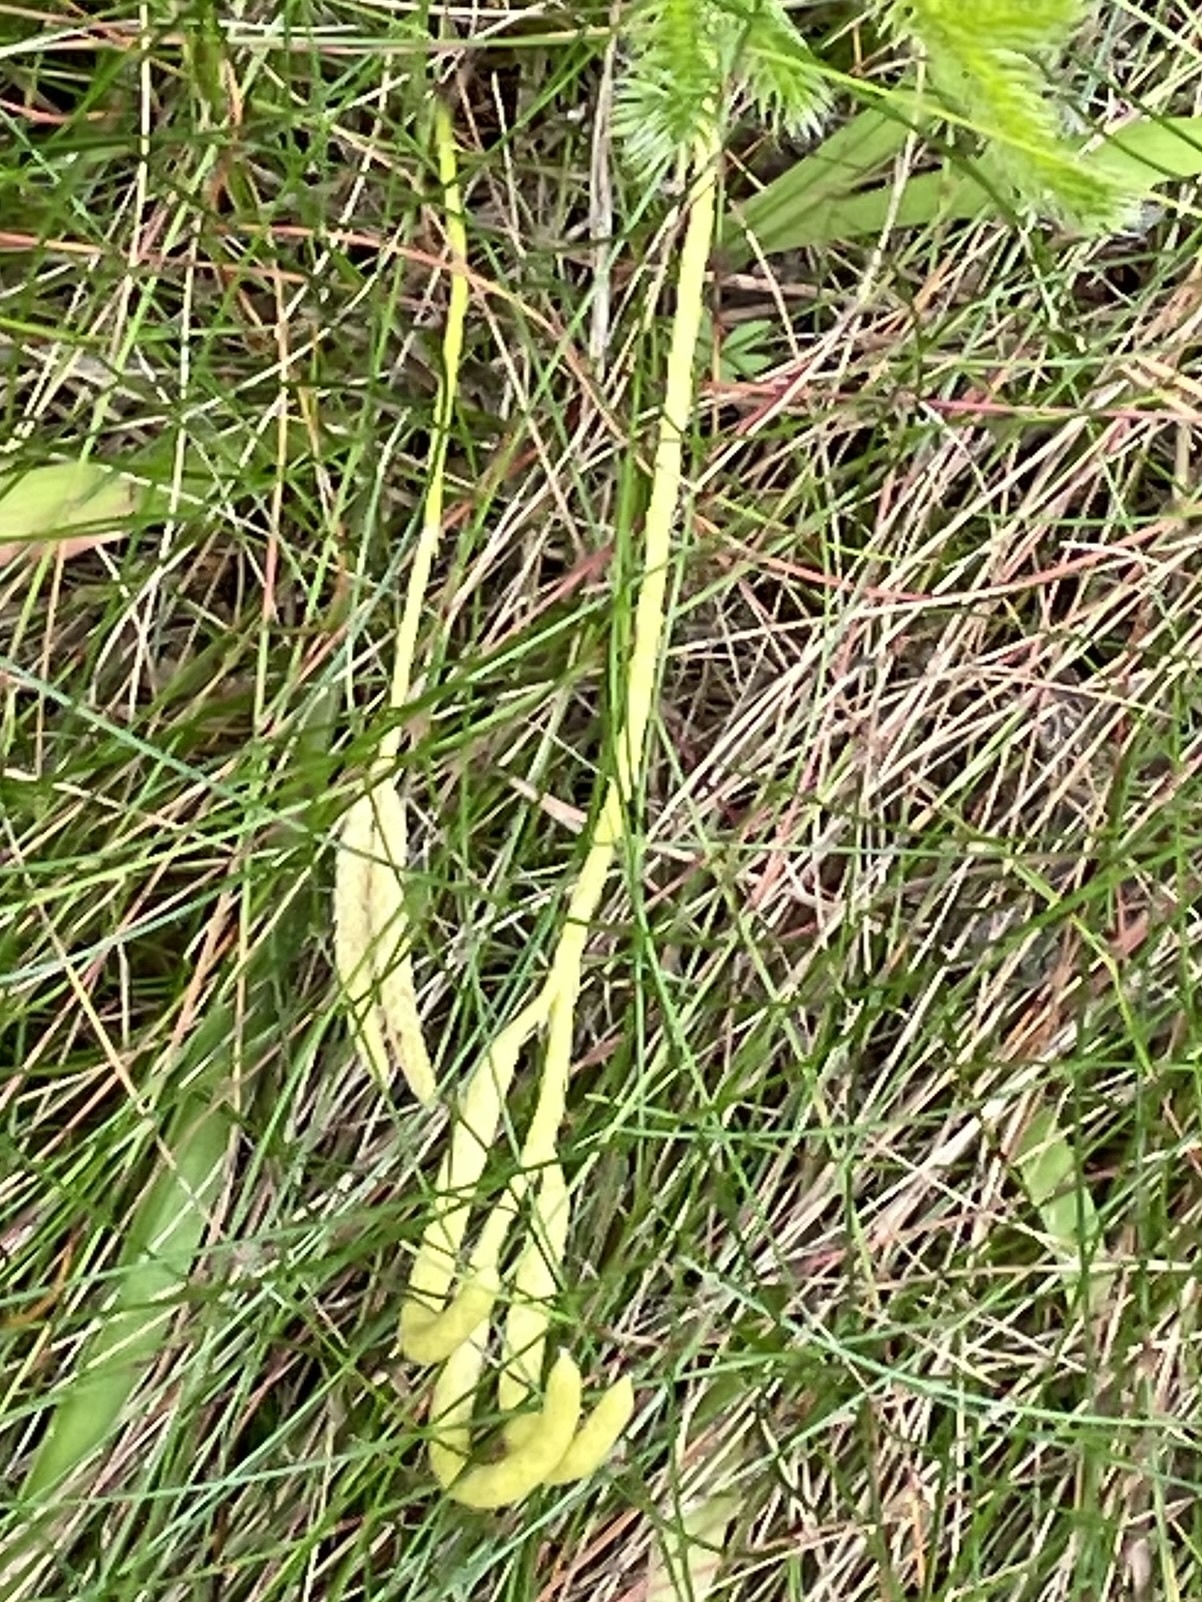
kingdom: Plantae
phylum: Tracheophyta
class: Lycopodiopsida
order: Lycopodiales
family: Lycopodiaceae
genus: Lycopodium
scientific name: Lycopodium clavatum
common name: Stag's-horn clubmoss
